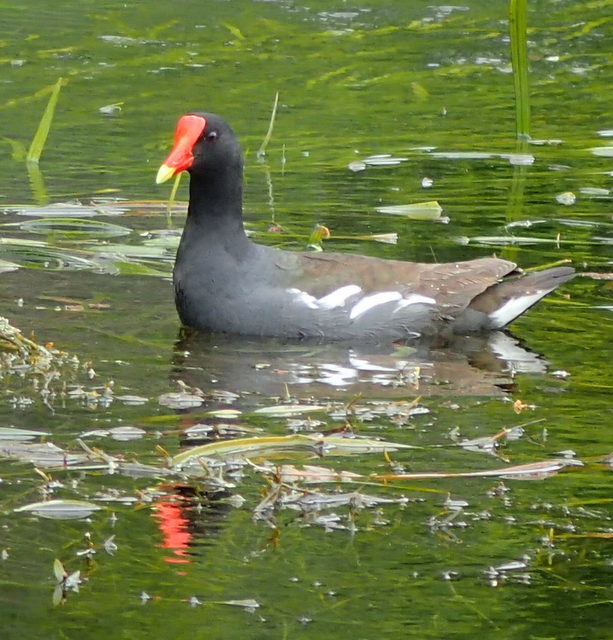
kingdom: Animalia
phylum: Chordata
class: Aves
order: Gruiformes
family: Rallidae
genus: Gallinula
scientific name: Gallinula chloropus
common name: Common moorhen
